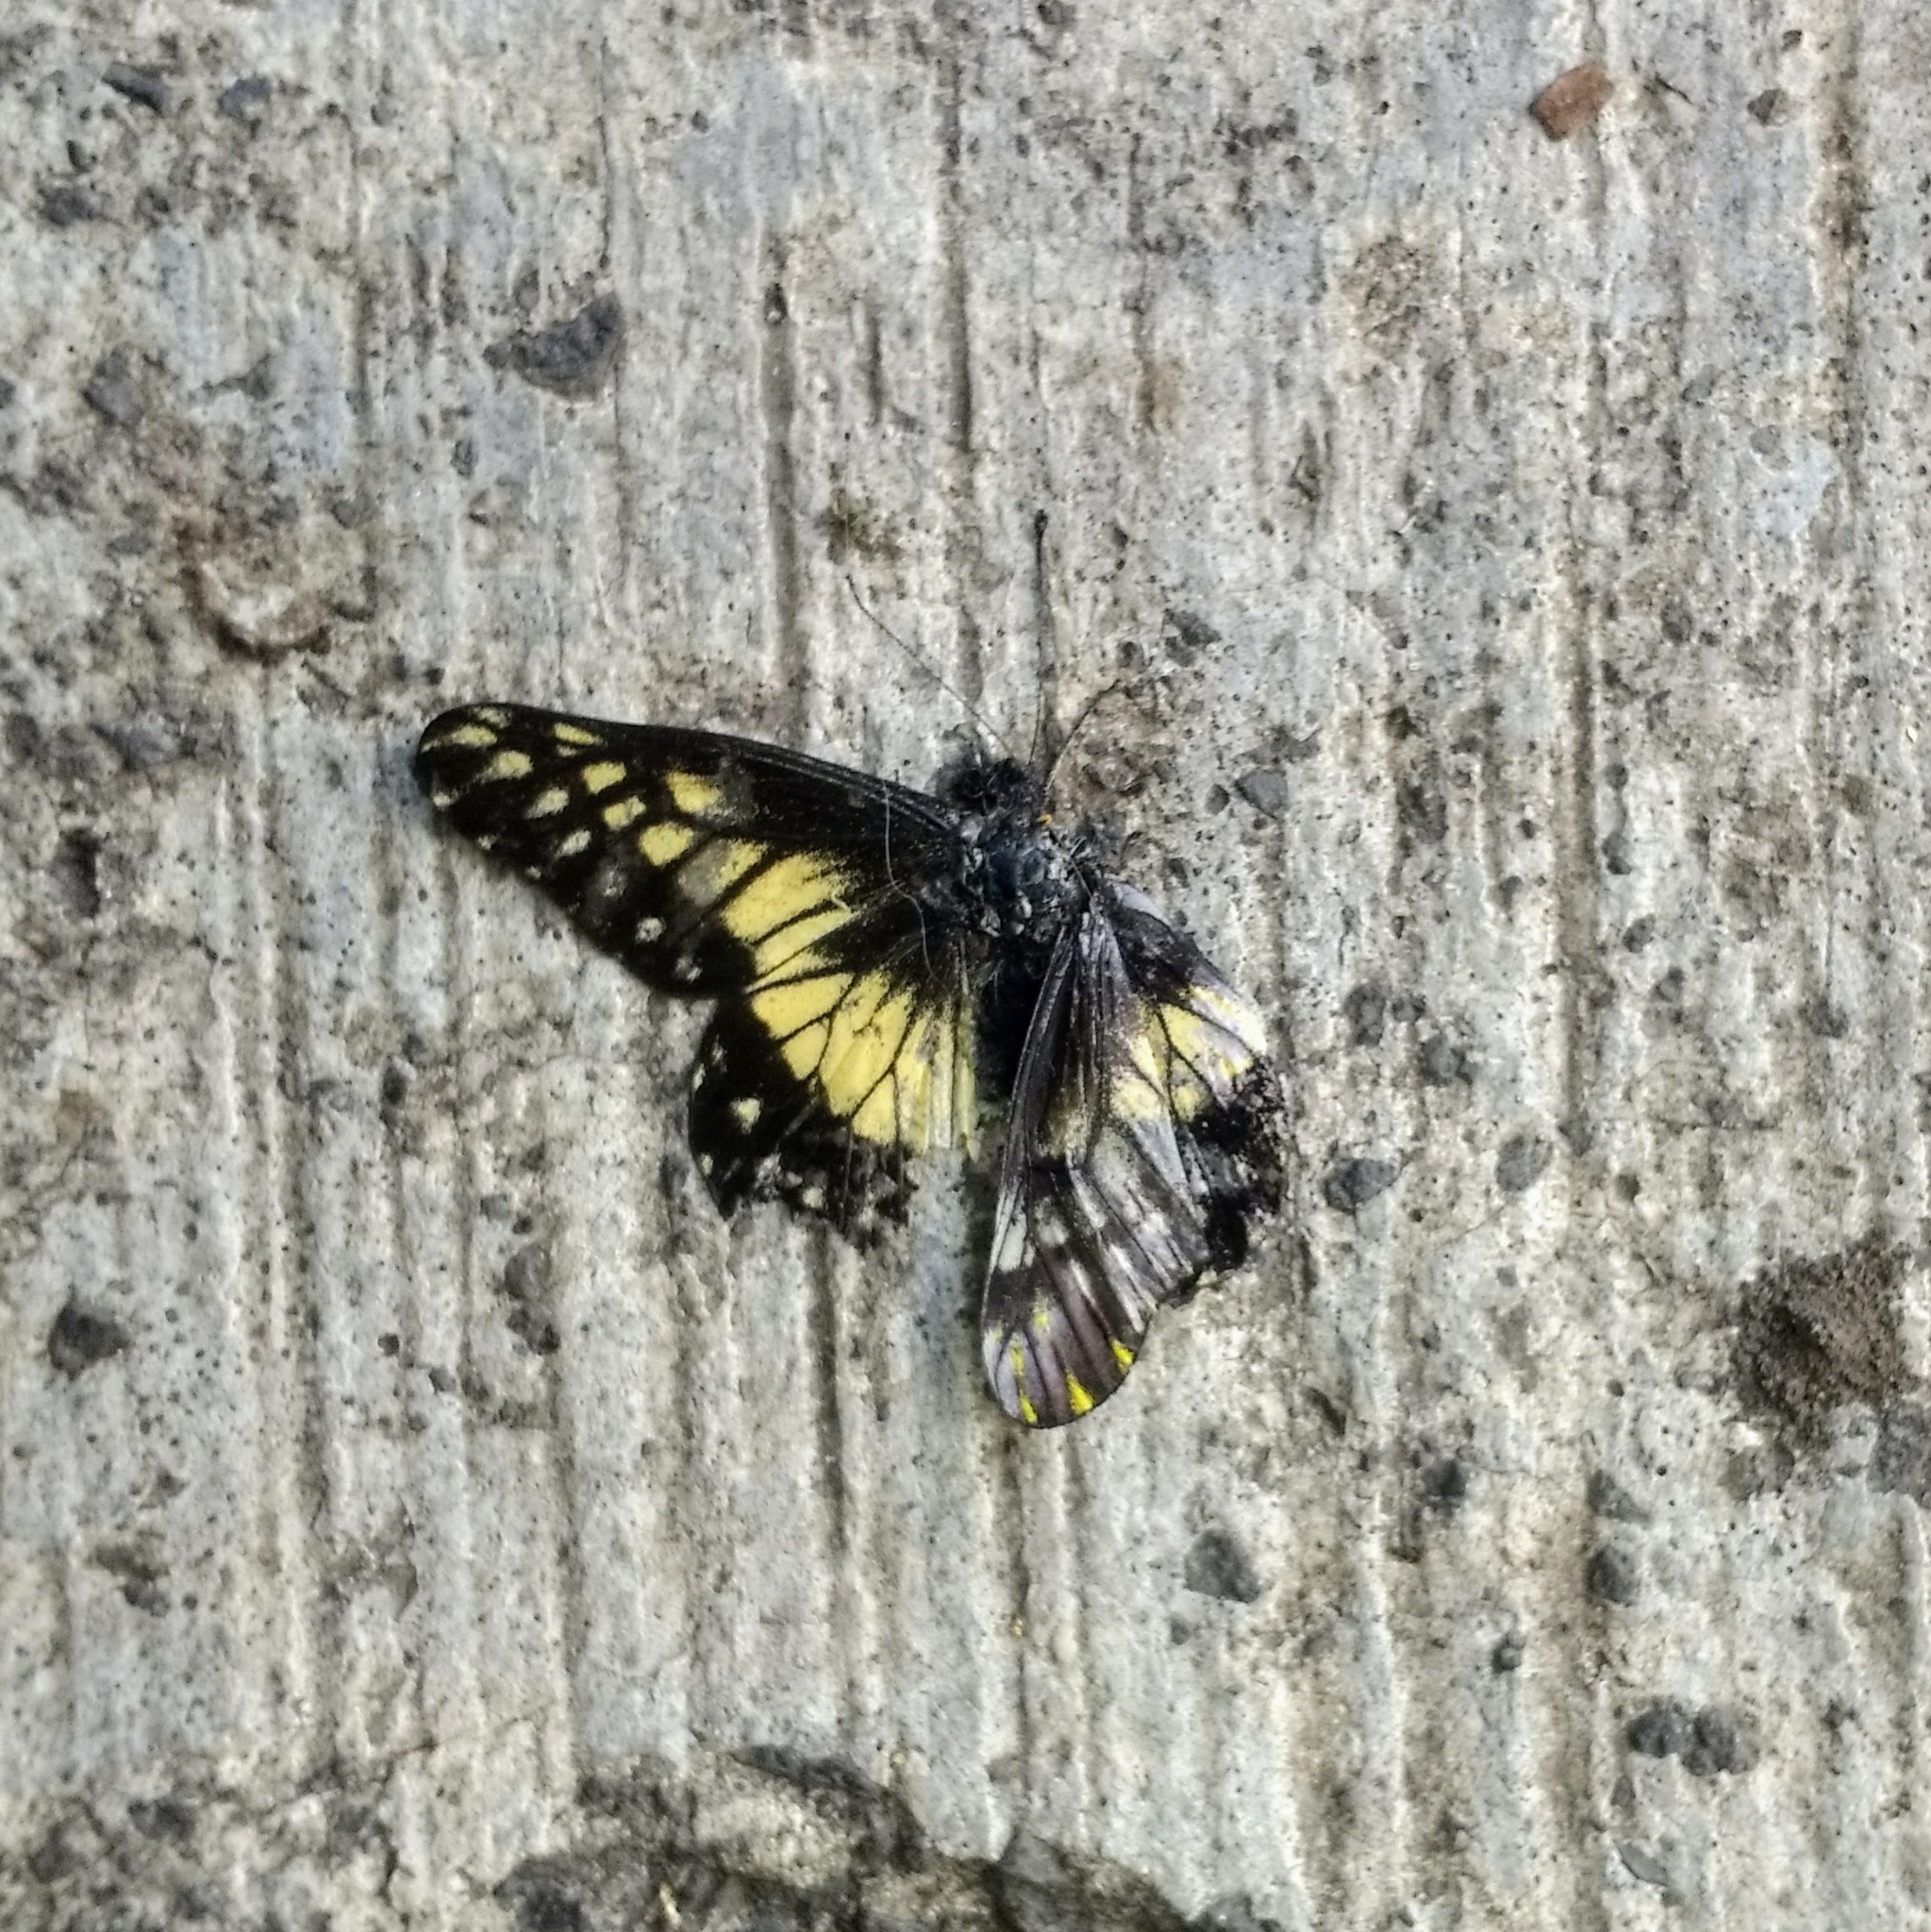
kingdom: Animalia
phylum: Arthropoda
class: Insecta
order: Lepidoptera
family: Pieridae
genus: Archonias
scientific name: Archonias nimbice
